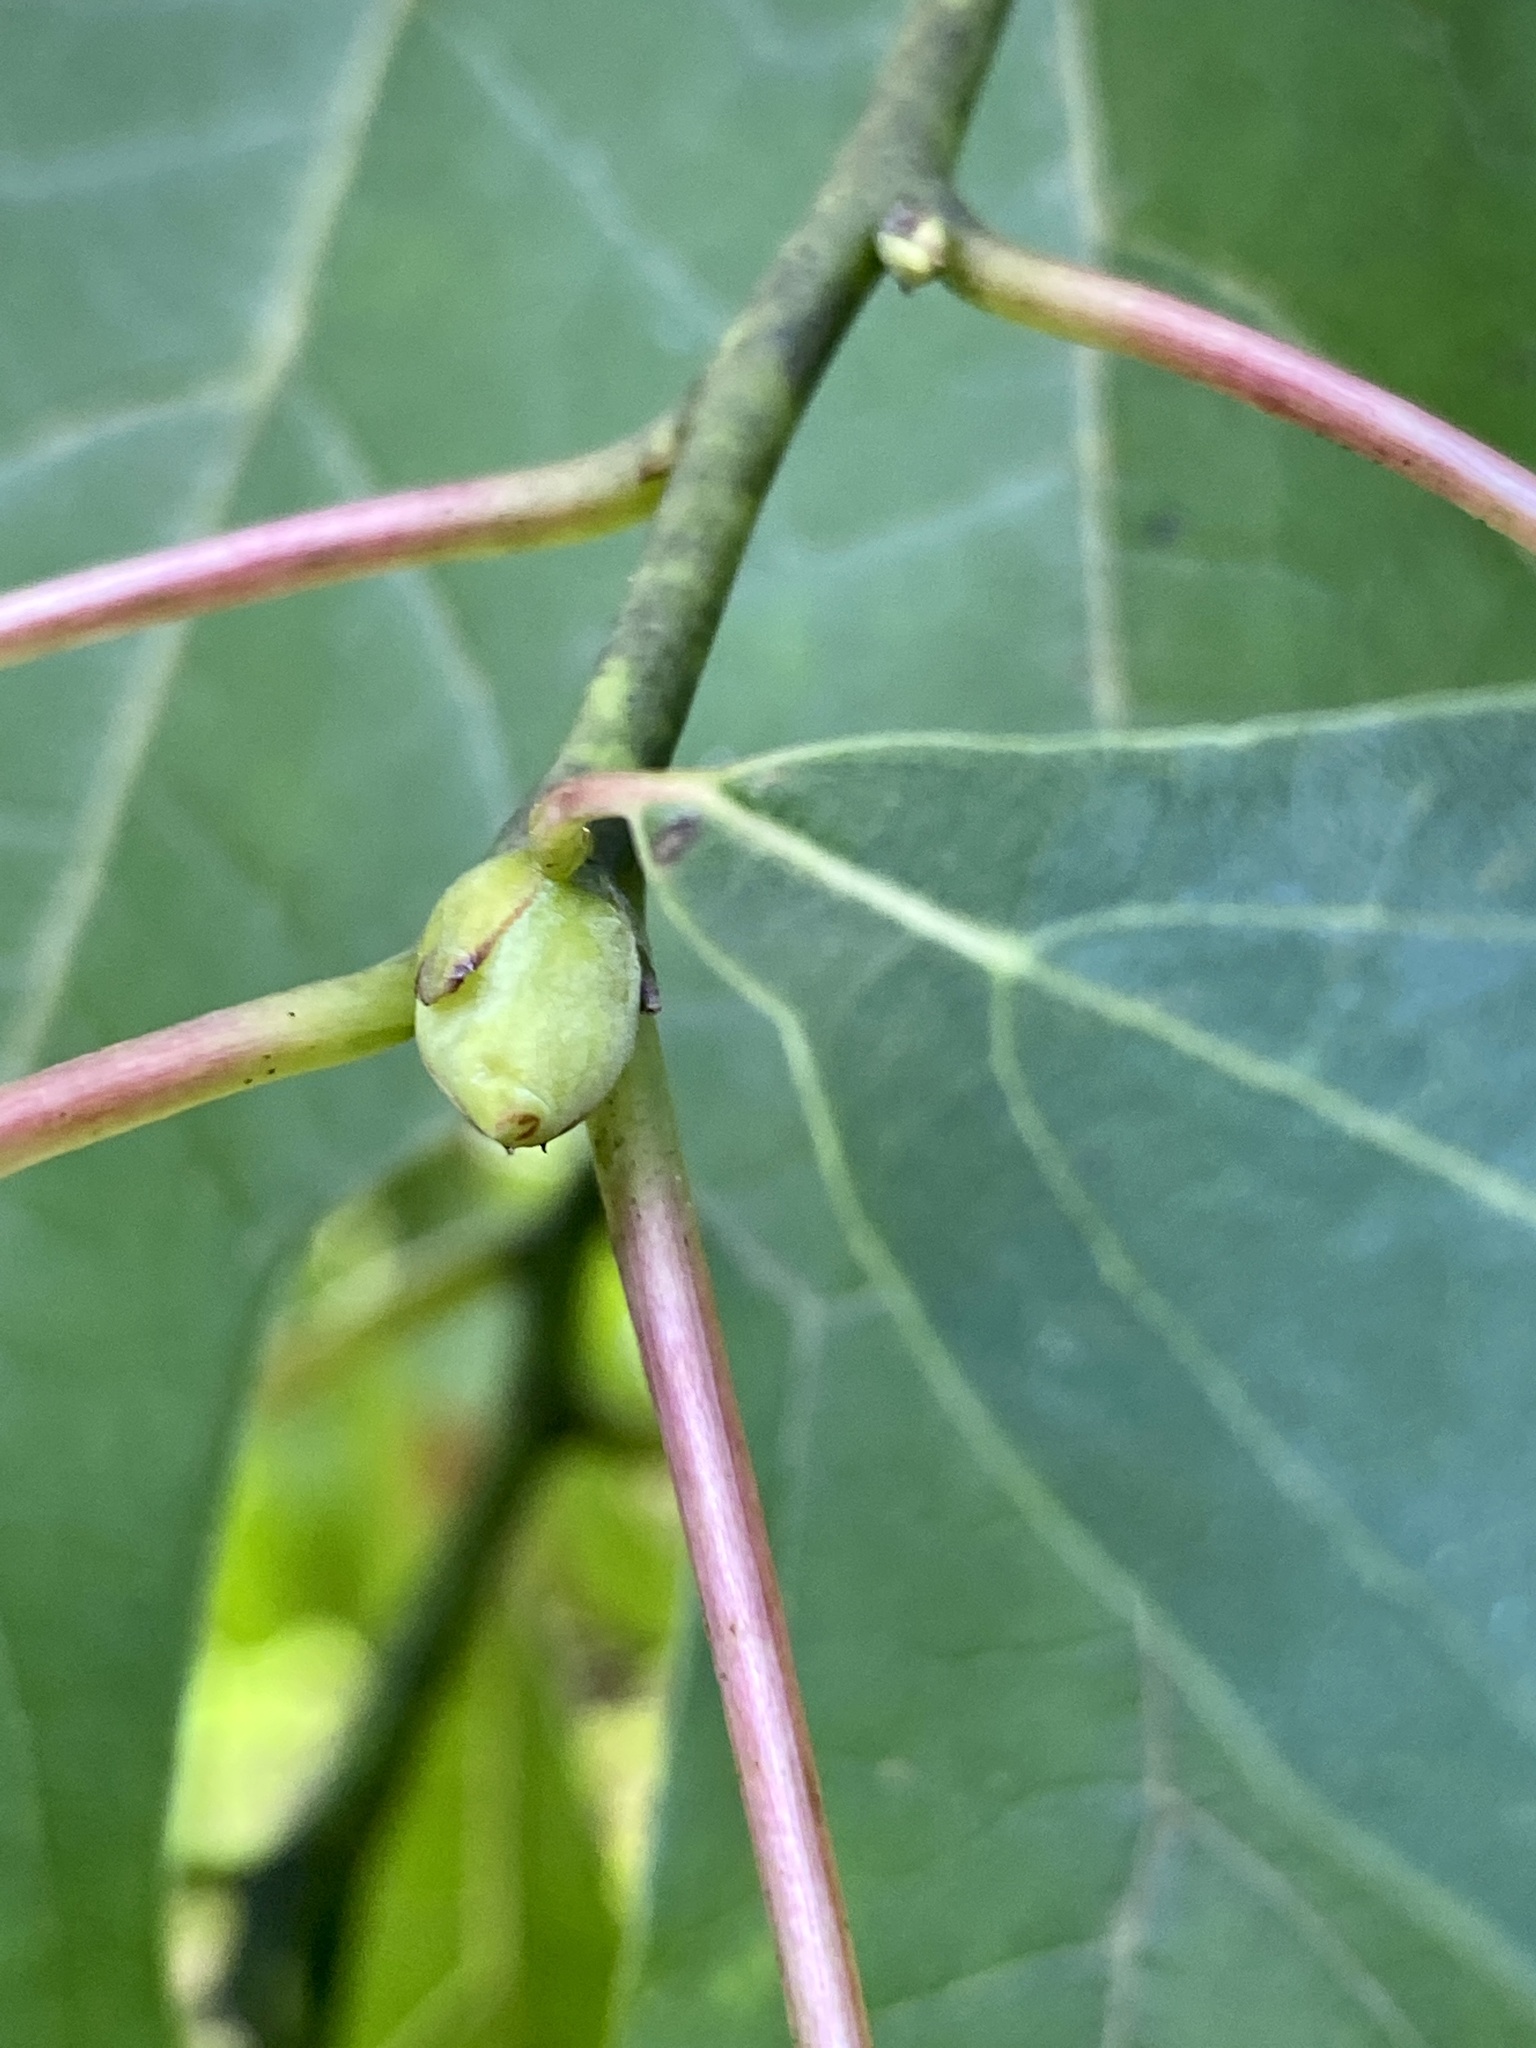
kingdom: Plantae
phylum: Tracheophyta
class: Magnoliopsida
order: Laurales
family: Lauraceae
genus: Sassafras
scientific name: Sassafras albidum
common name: Sassafras
